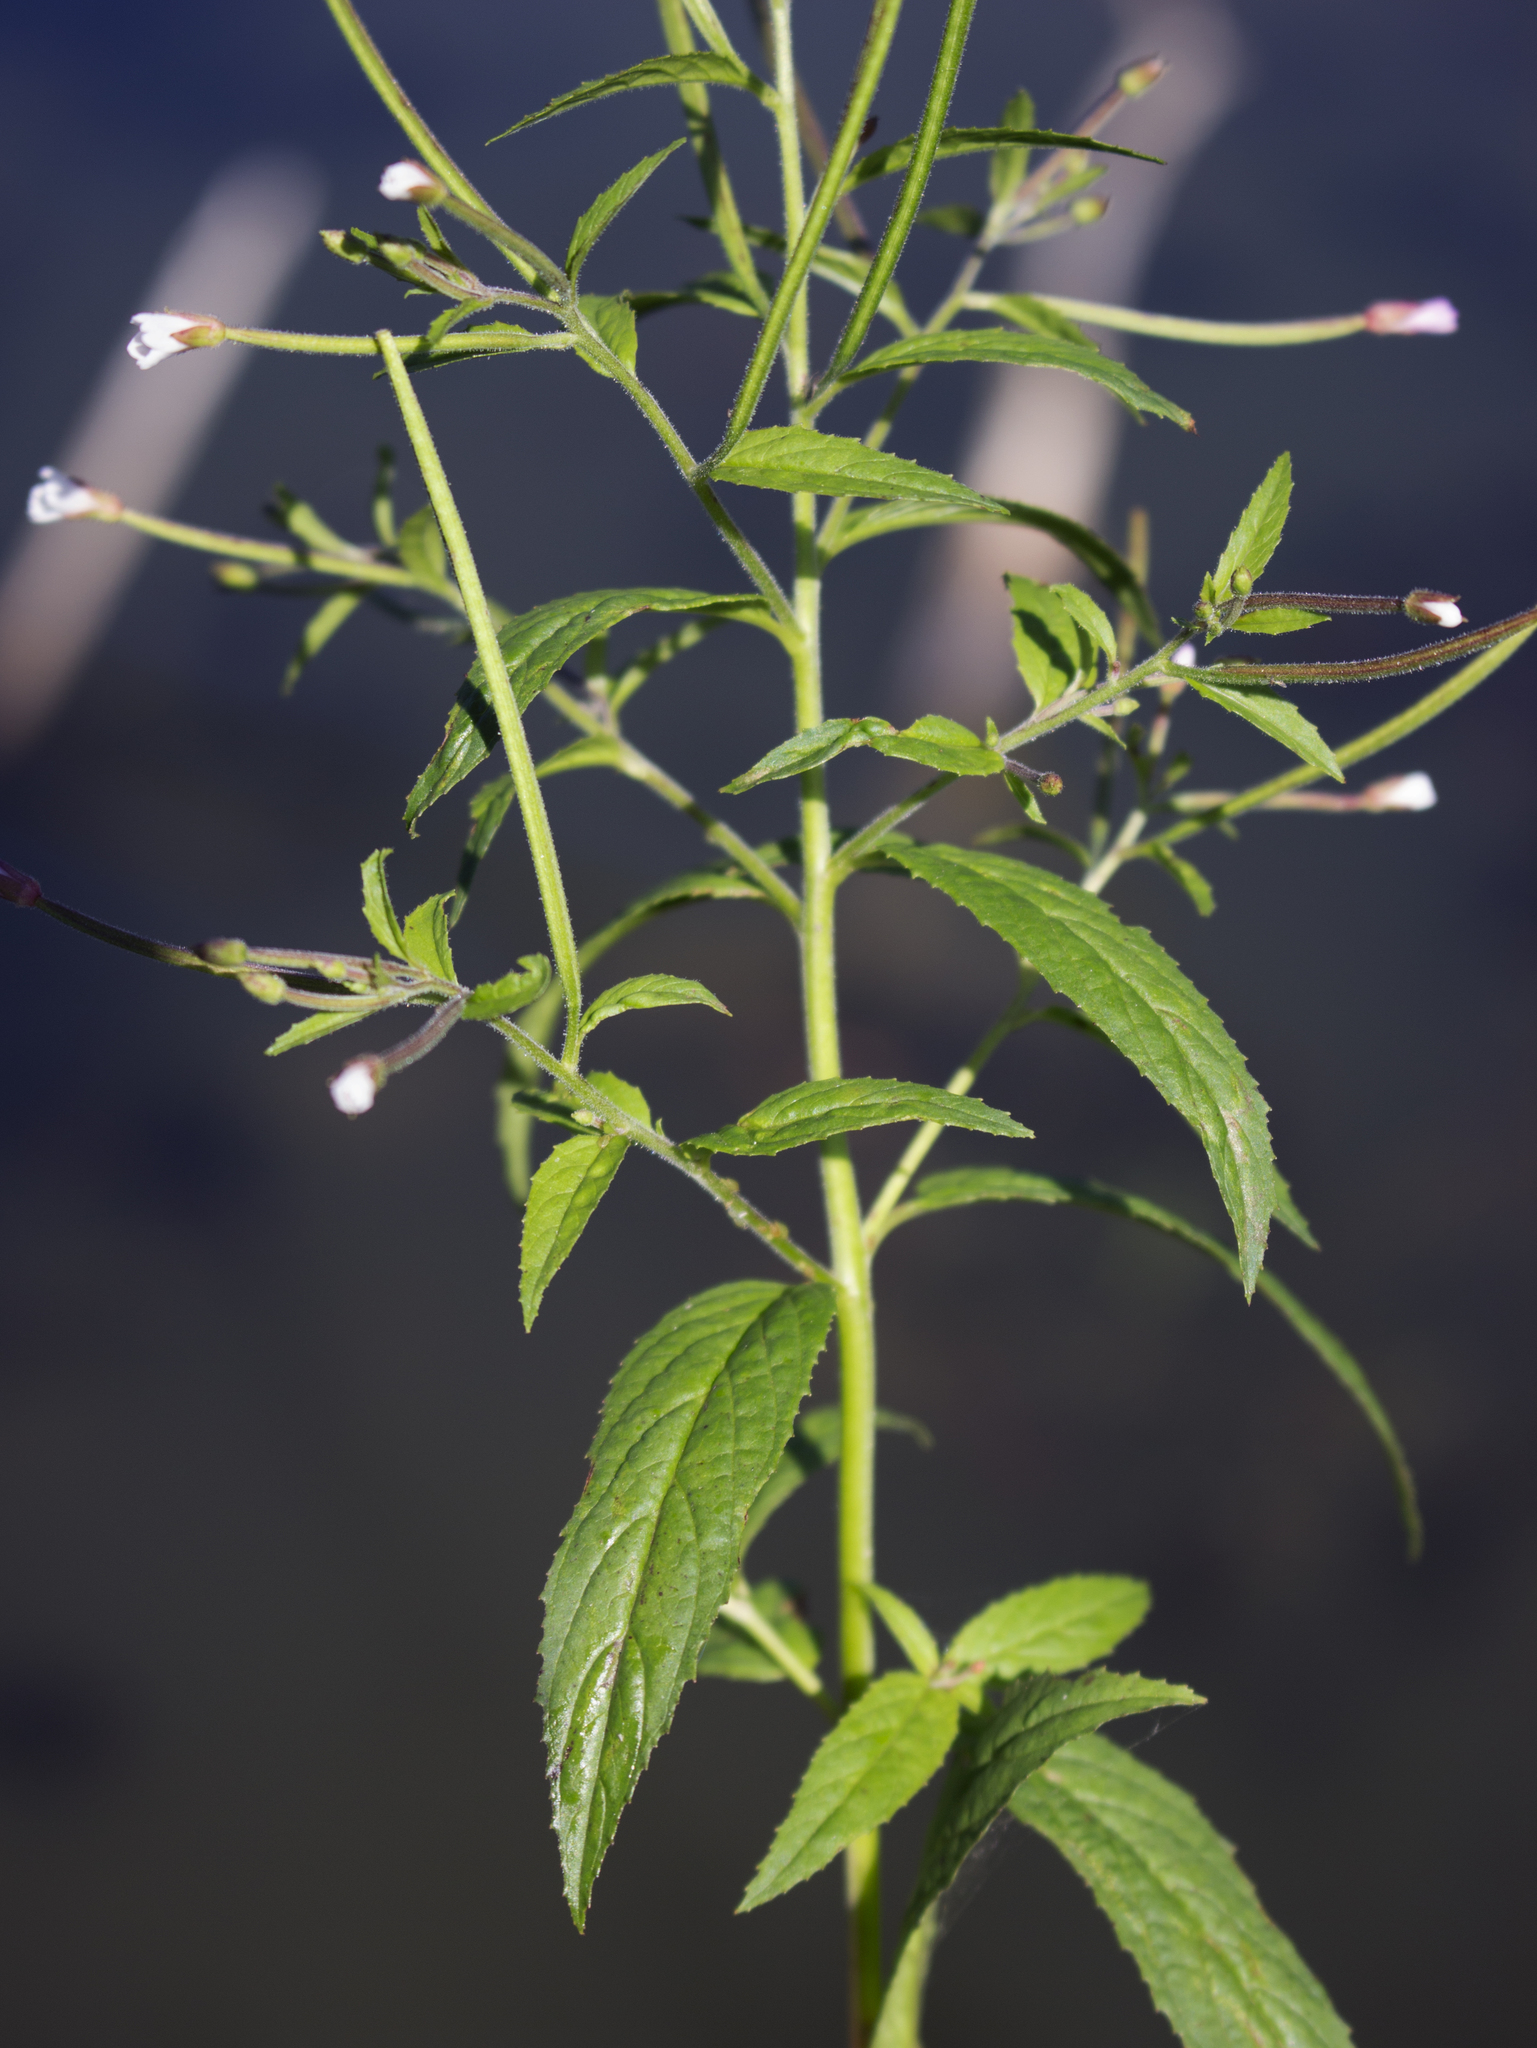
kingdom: Plantae
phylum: Tracheophyta
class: Magnoliopsida
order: Myrtales
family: Onagraceae
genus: Epilobium
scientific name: Epilobium coloratum
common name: Bronze willowherb
